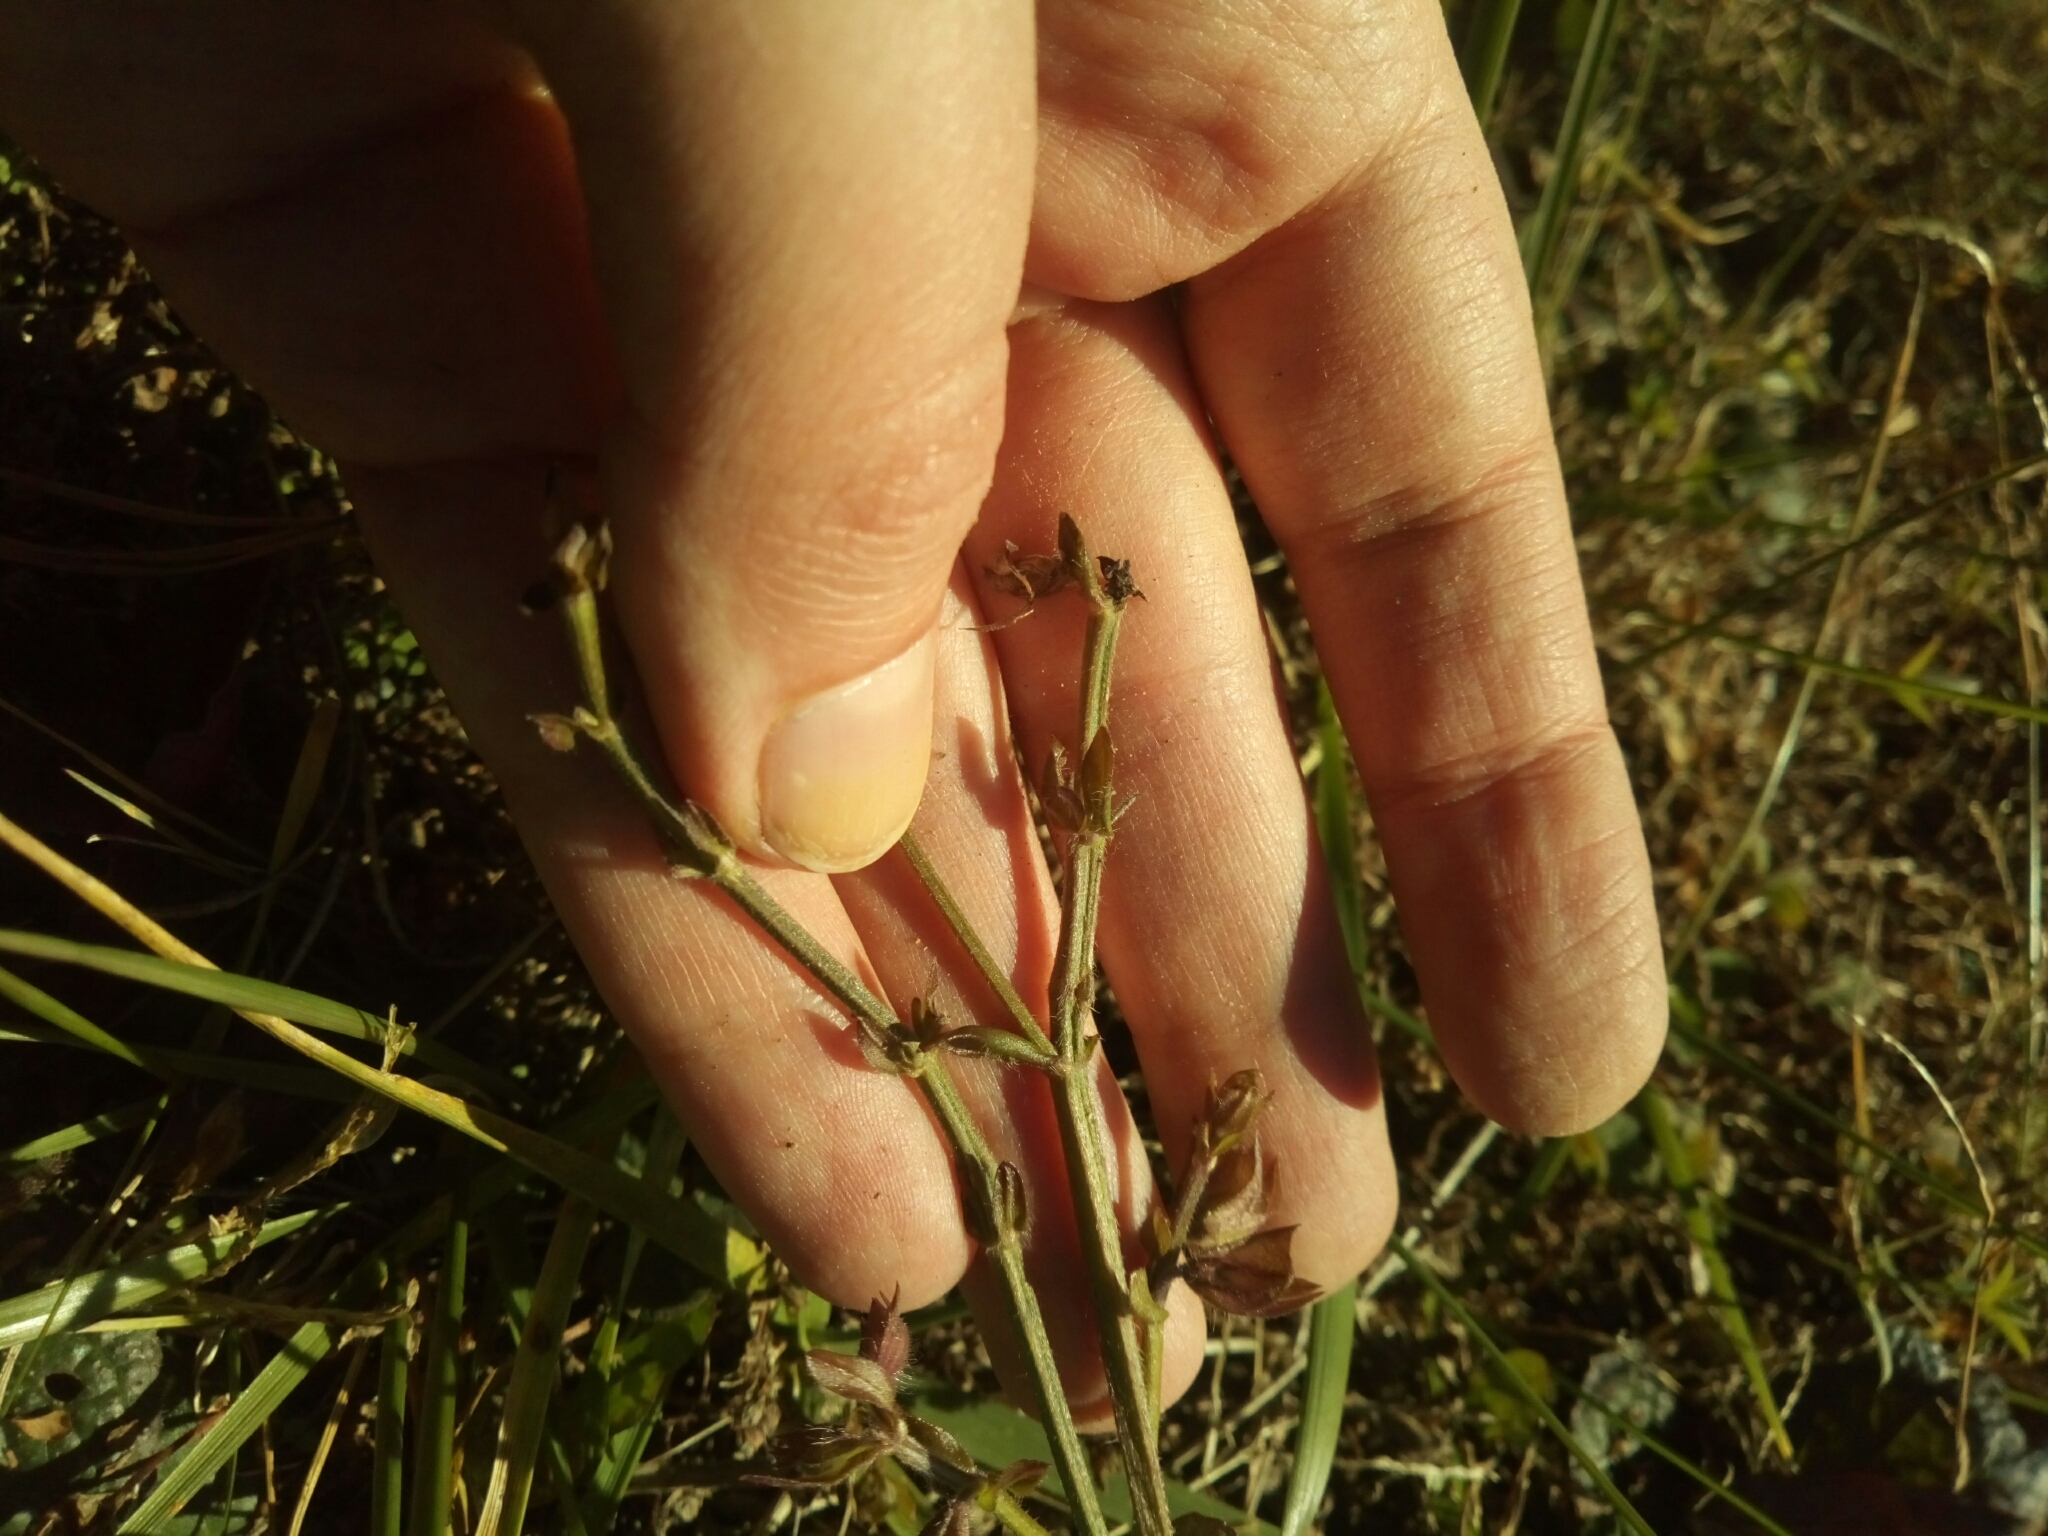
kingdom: Plantae
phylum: Tracheophyta
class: Magnoliopsida
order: Lamiales
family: Lamiaceae
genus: Salvia
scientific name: Salvia lyrata
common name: Cancerweed
